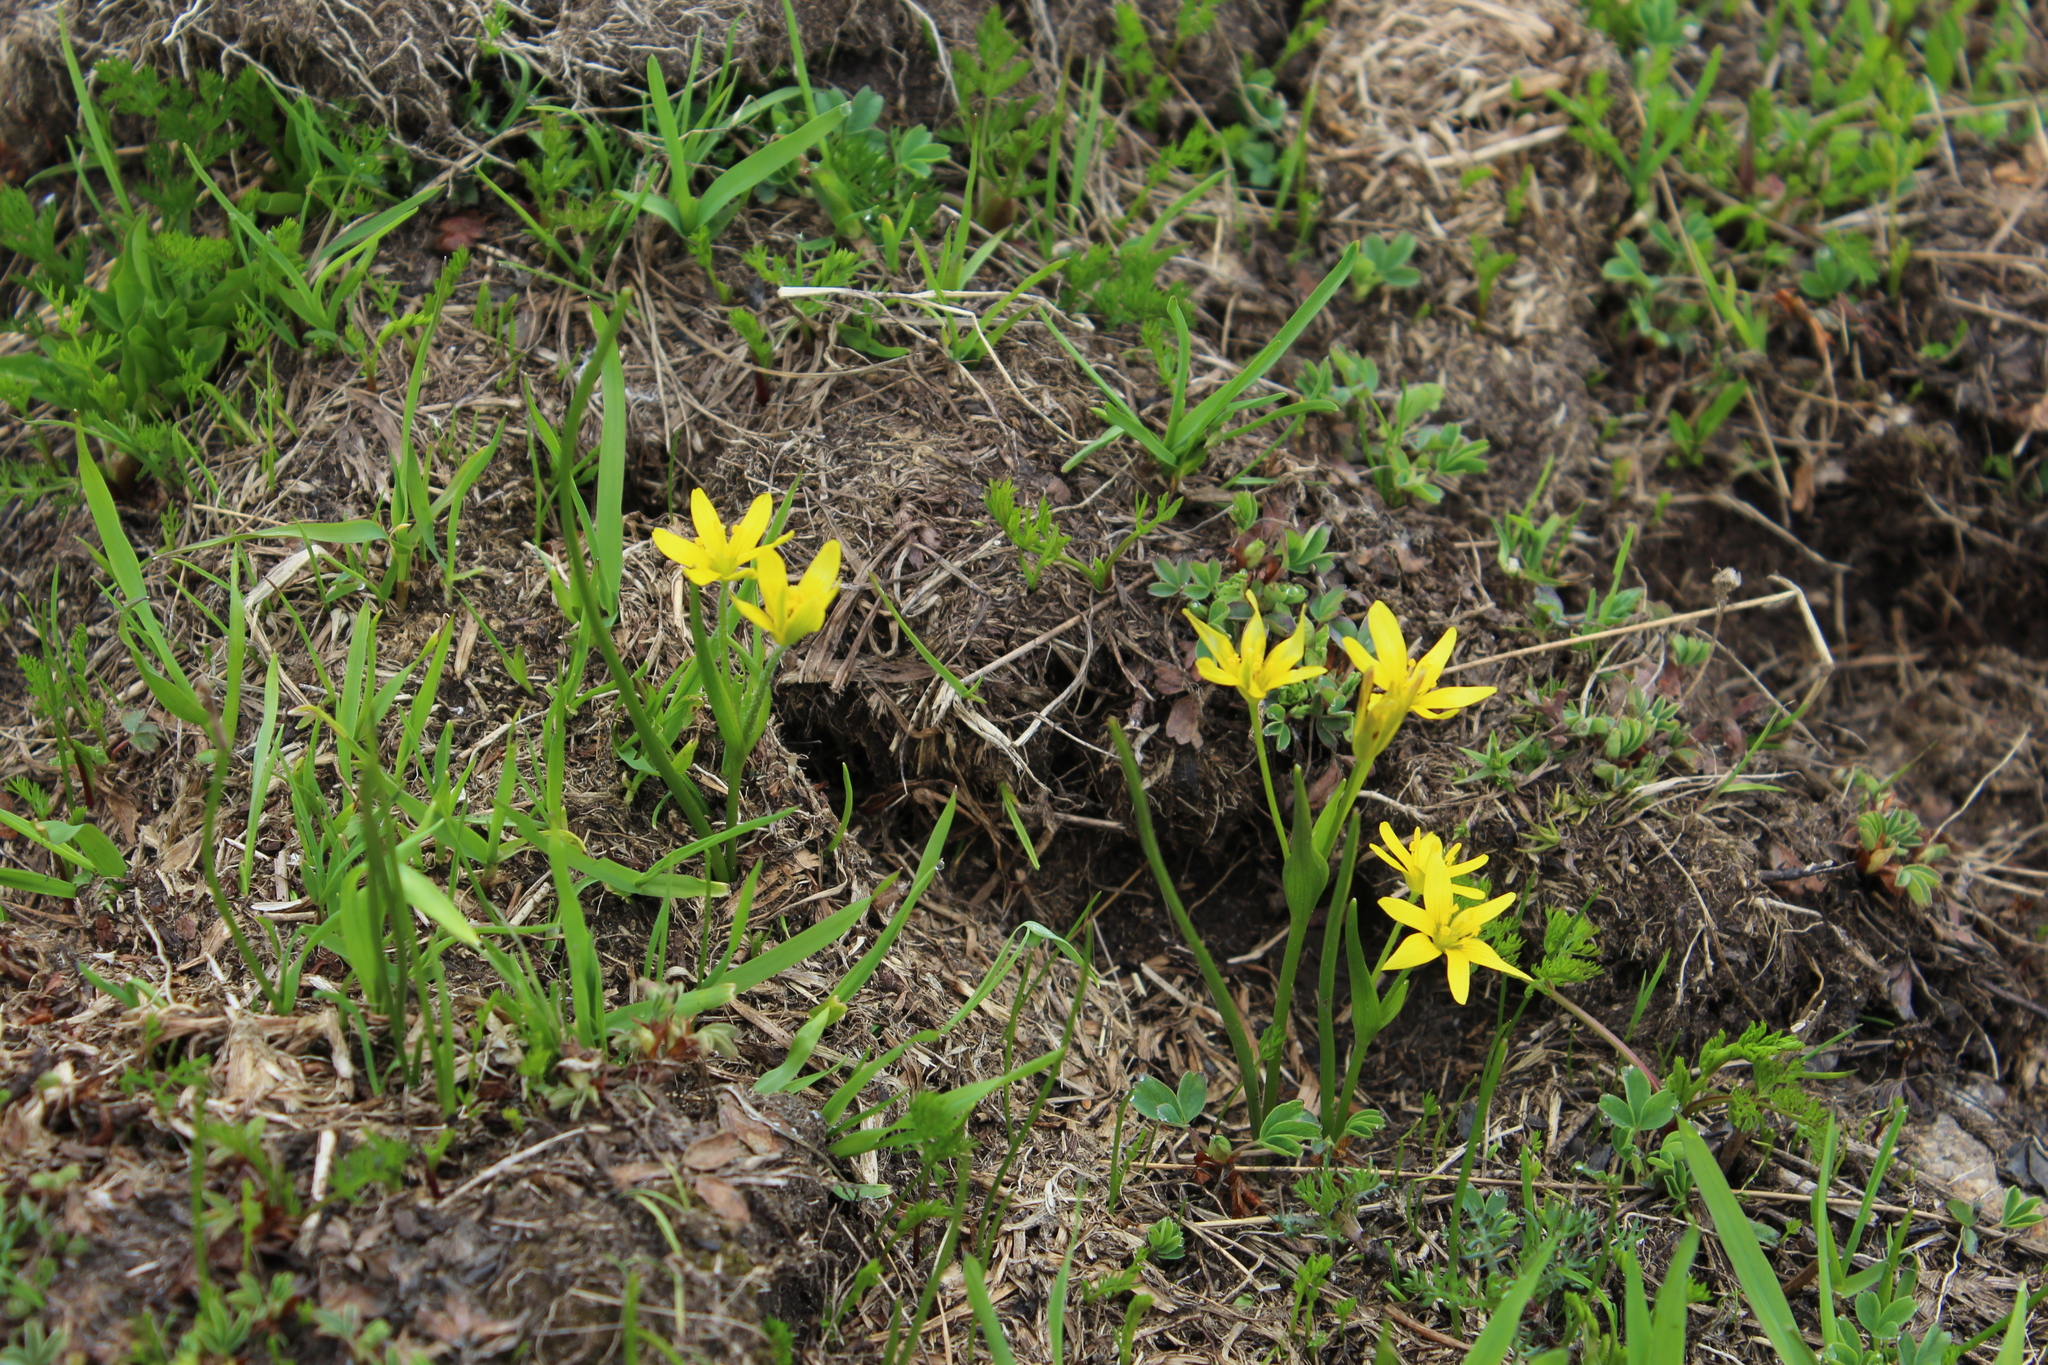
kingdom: Plantae
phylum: Tracheophyta
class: Liliopsida
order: Liliales
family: Liliaceae
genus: Gagea
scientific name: Gagea fragifera
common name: Lily
